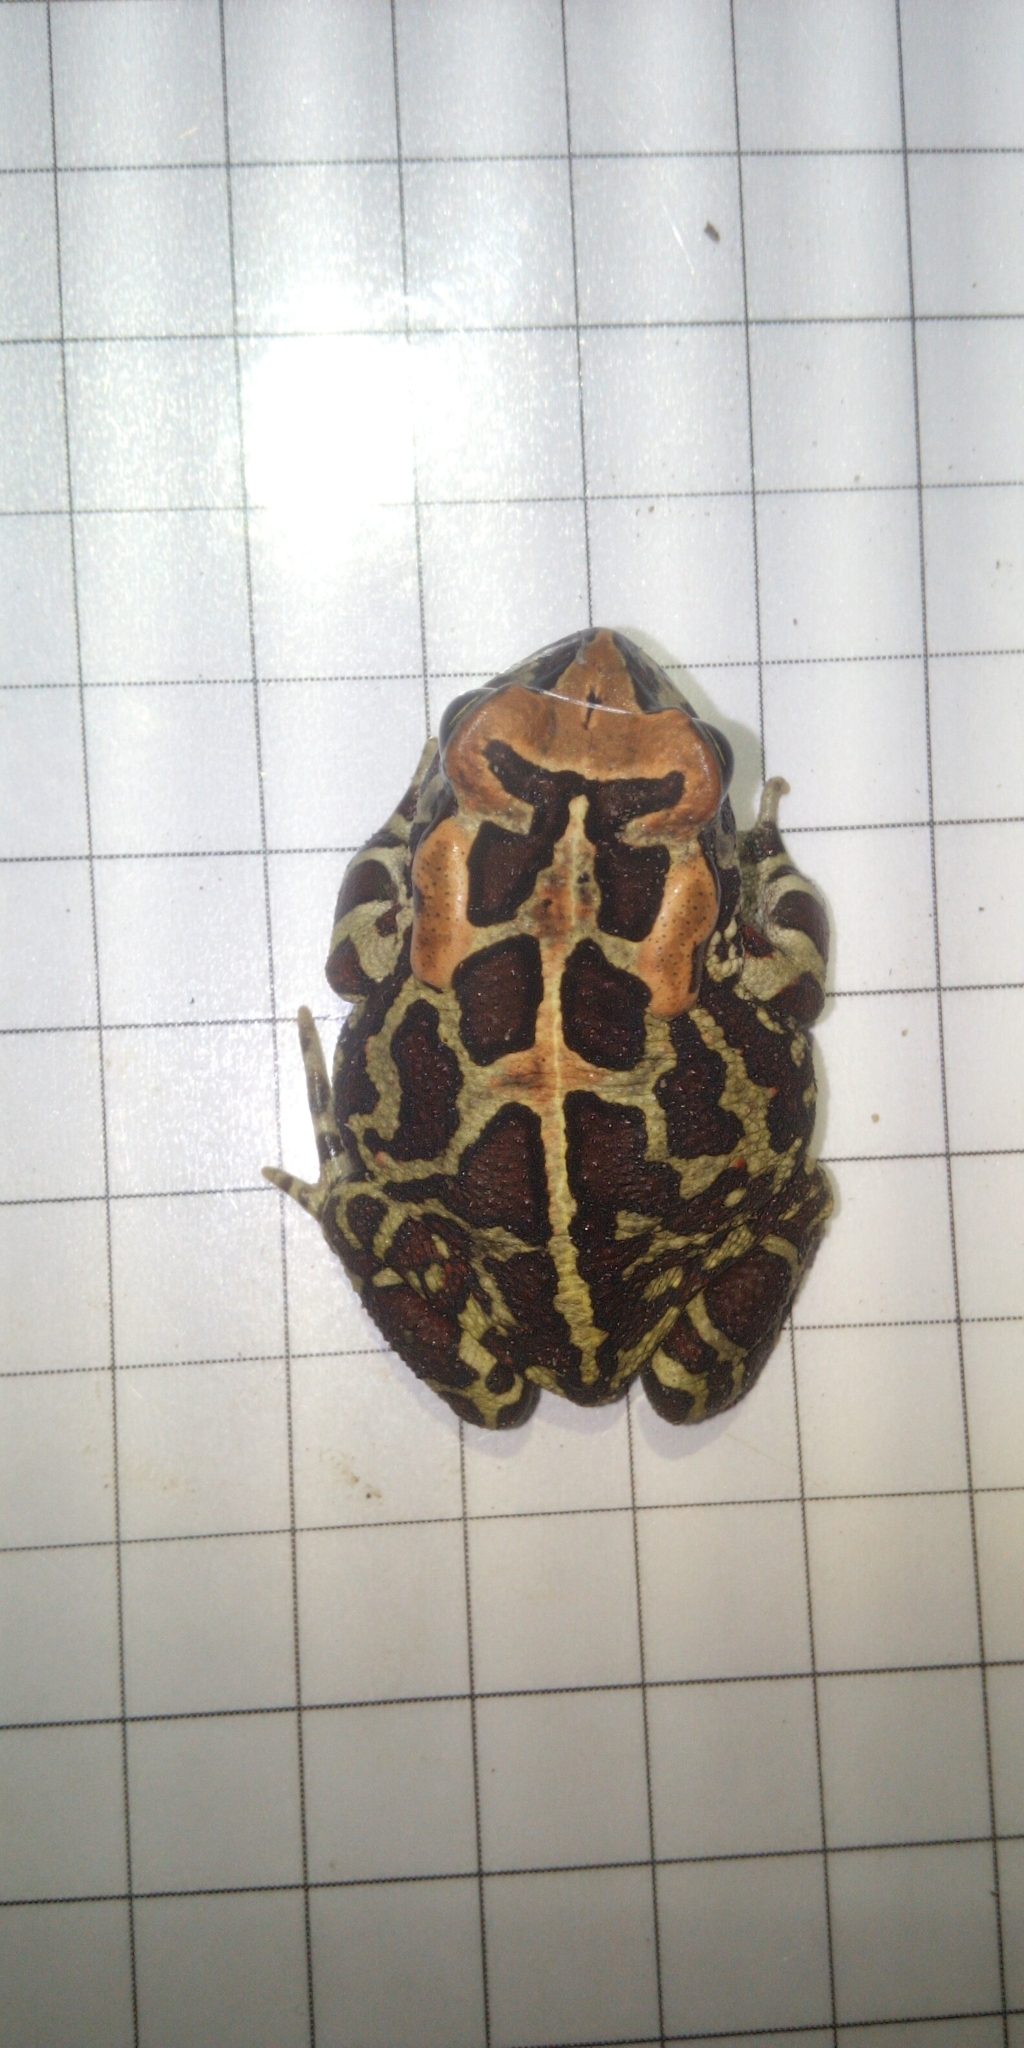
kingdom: Animalia
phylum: Chordata
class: Amphibia
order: Anura
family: Bufonidae
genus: Sclerophrys
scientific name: Sclerophrys pantherina
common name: Panther toad
